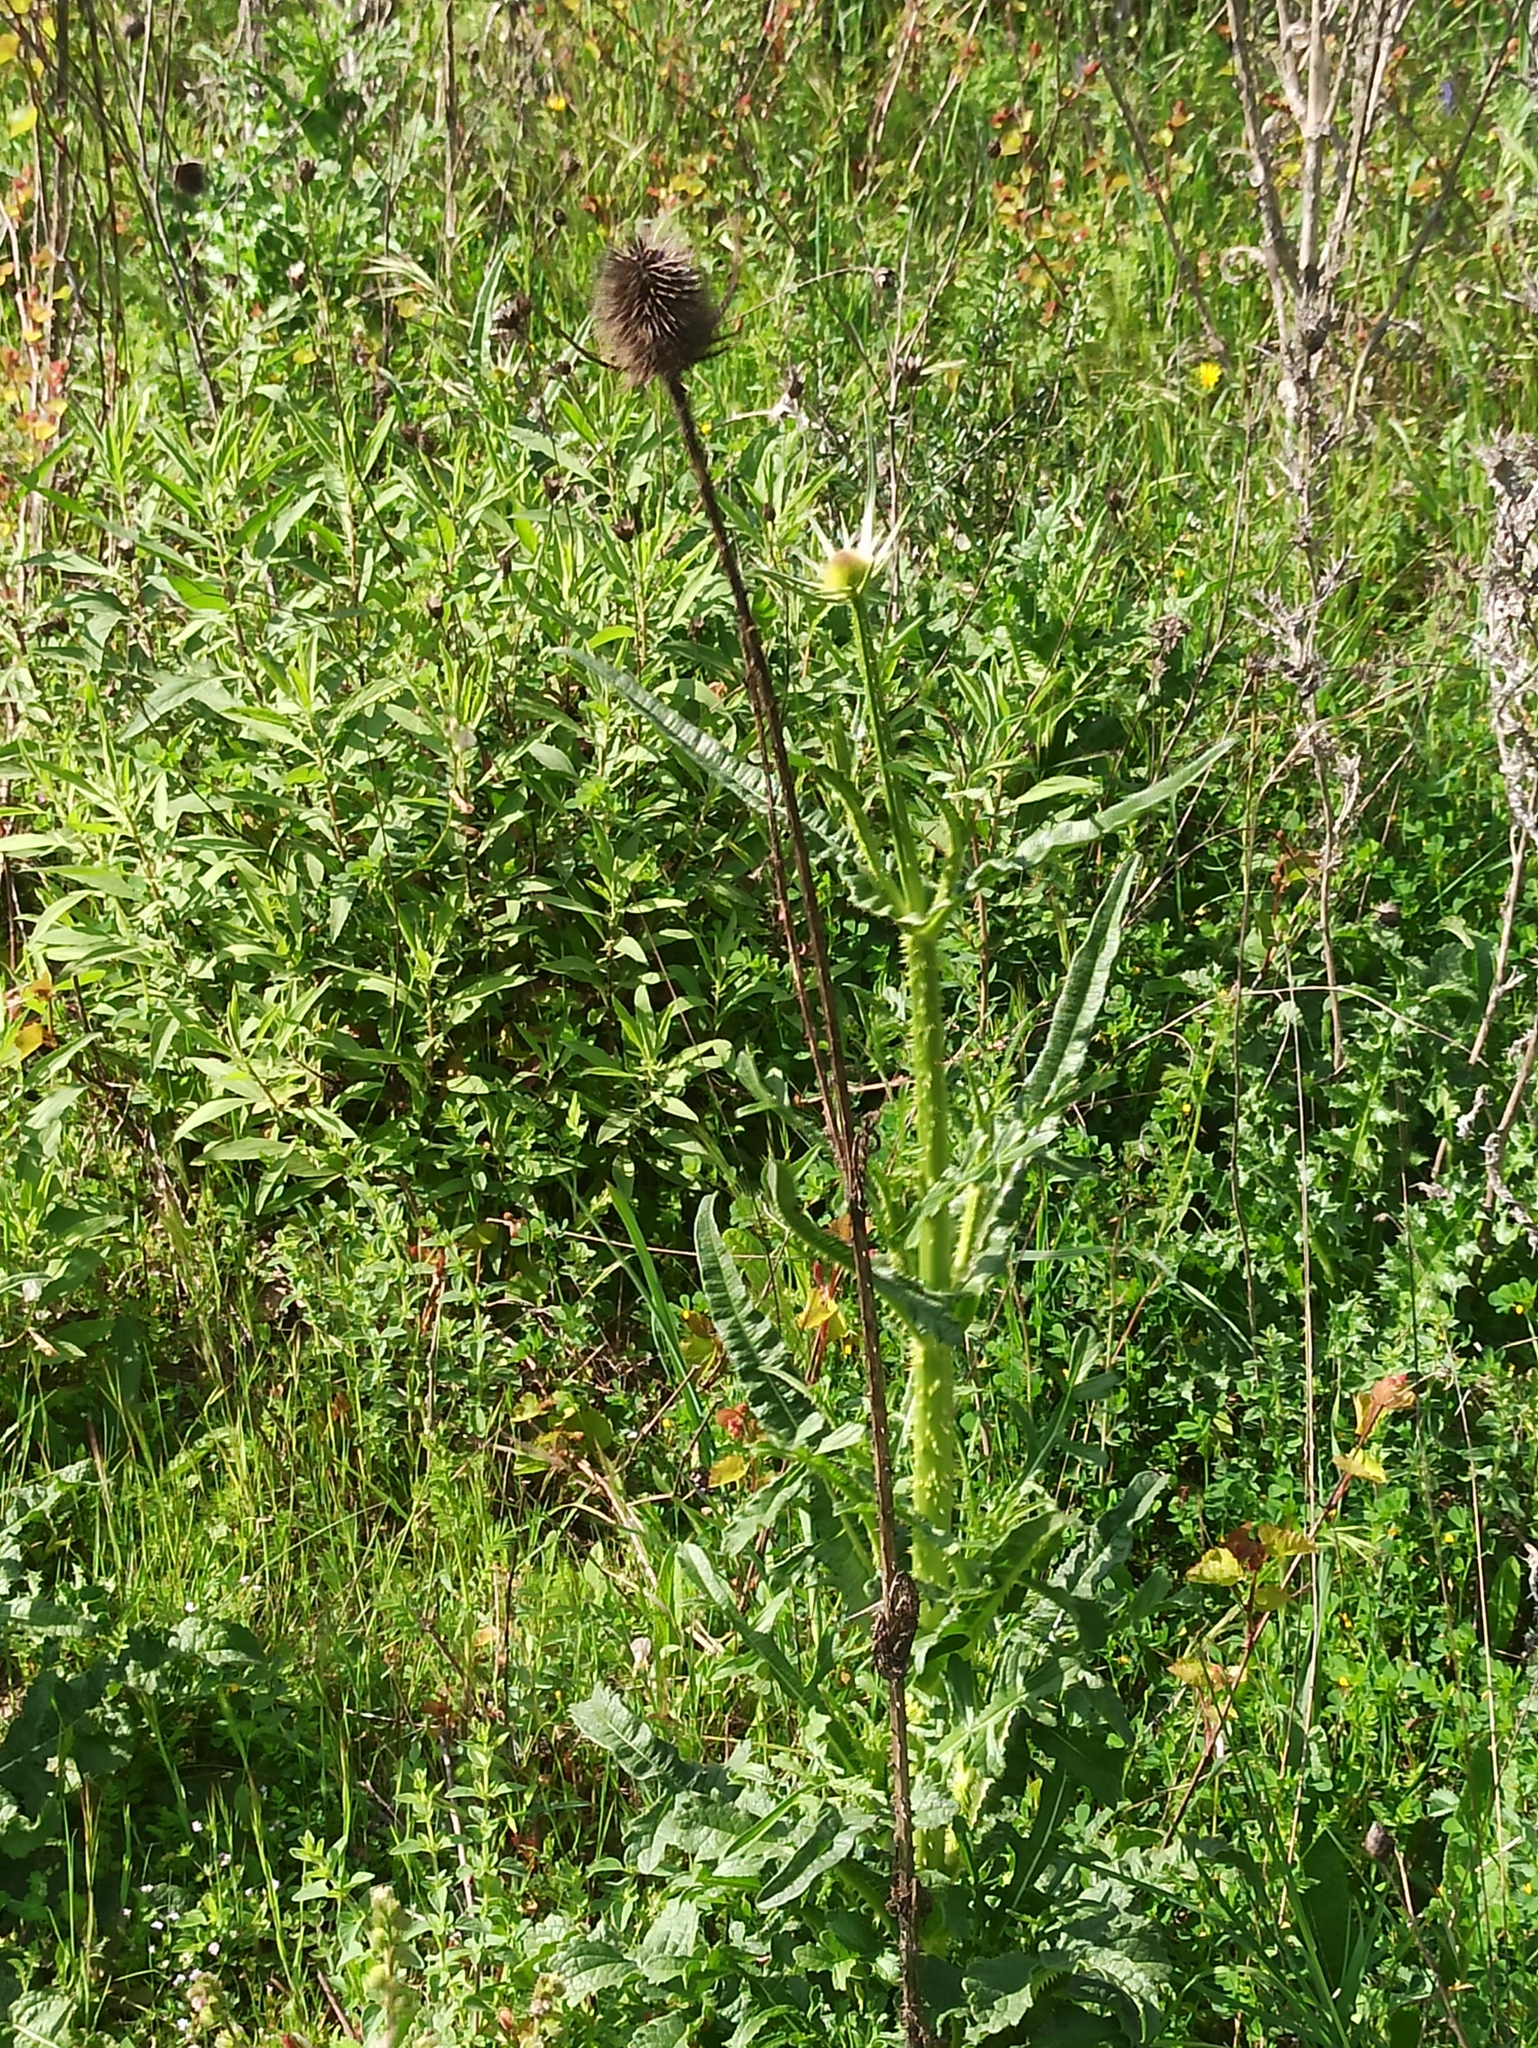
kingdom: Plantae
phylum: Tracheophyta
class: Magnoliopsida
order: Dipsacales
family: Caprifoliaceae
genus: Dipsacus
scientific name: Dipsacus comosus
